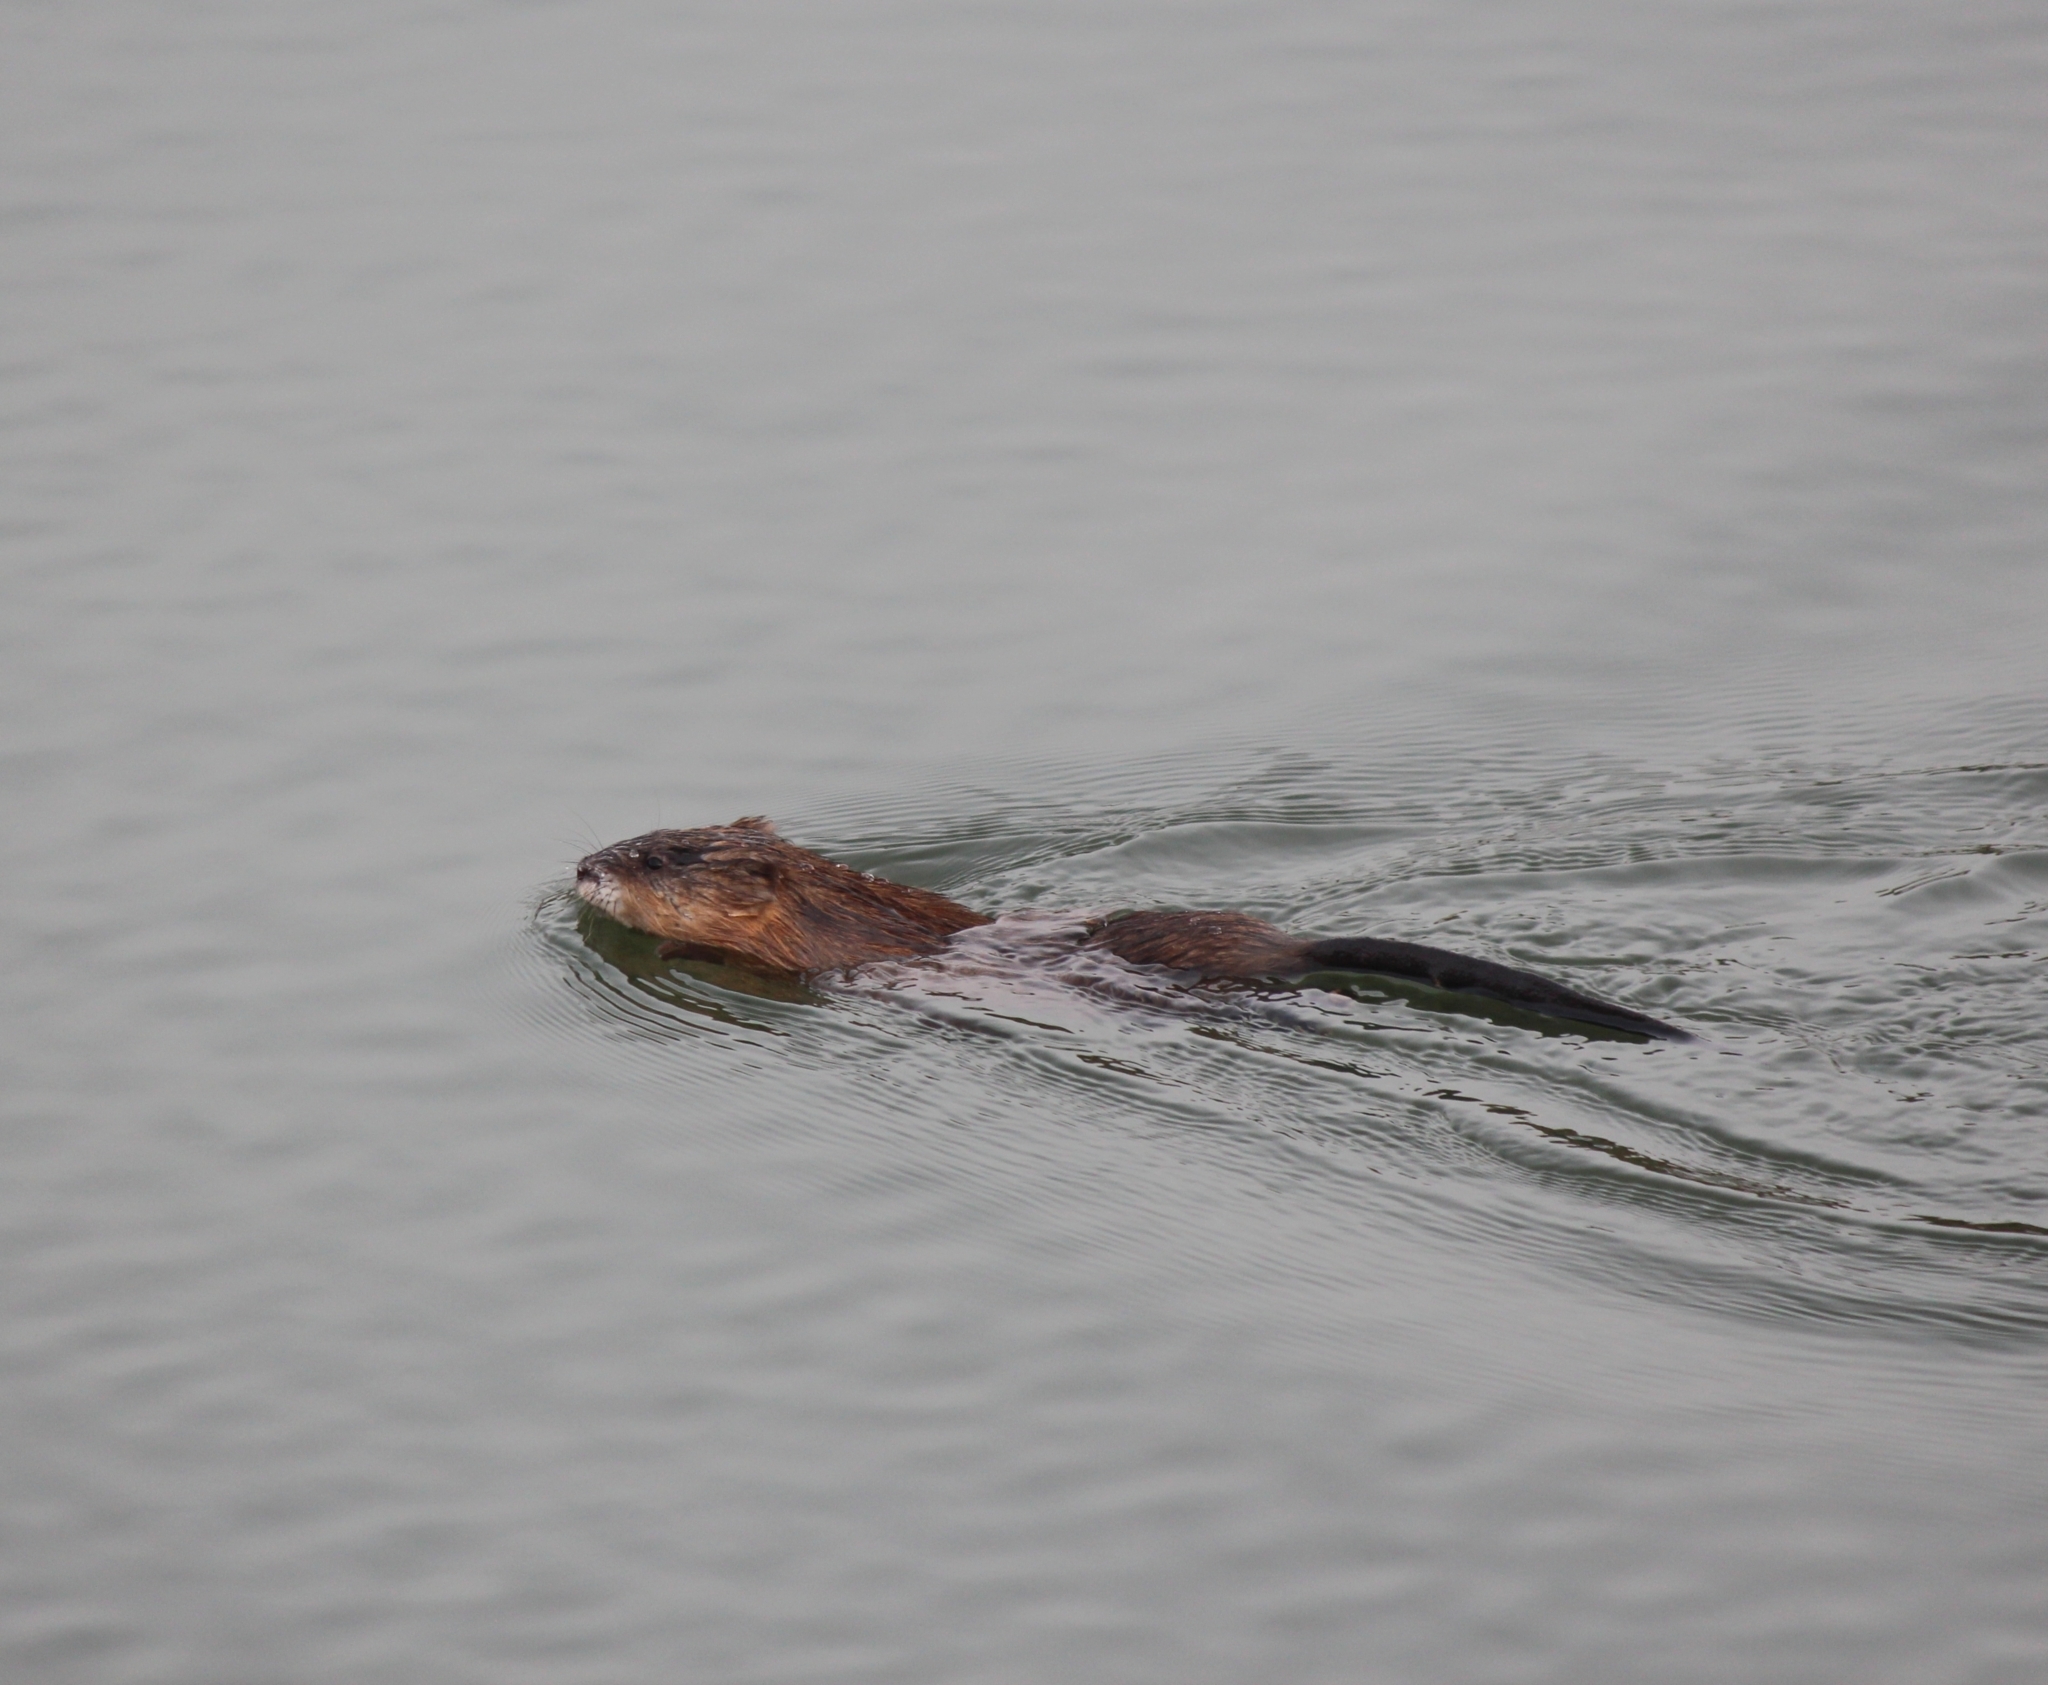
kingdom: Animalia
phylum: Chordata
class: Mammalia
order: Rodentia
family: Cricetidae
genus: Ondatra
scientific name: Ondatra zibethicus
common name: Muskrat
